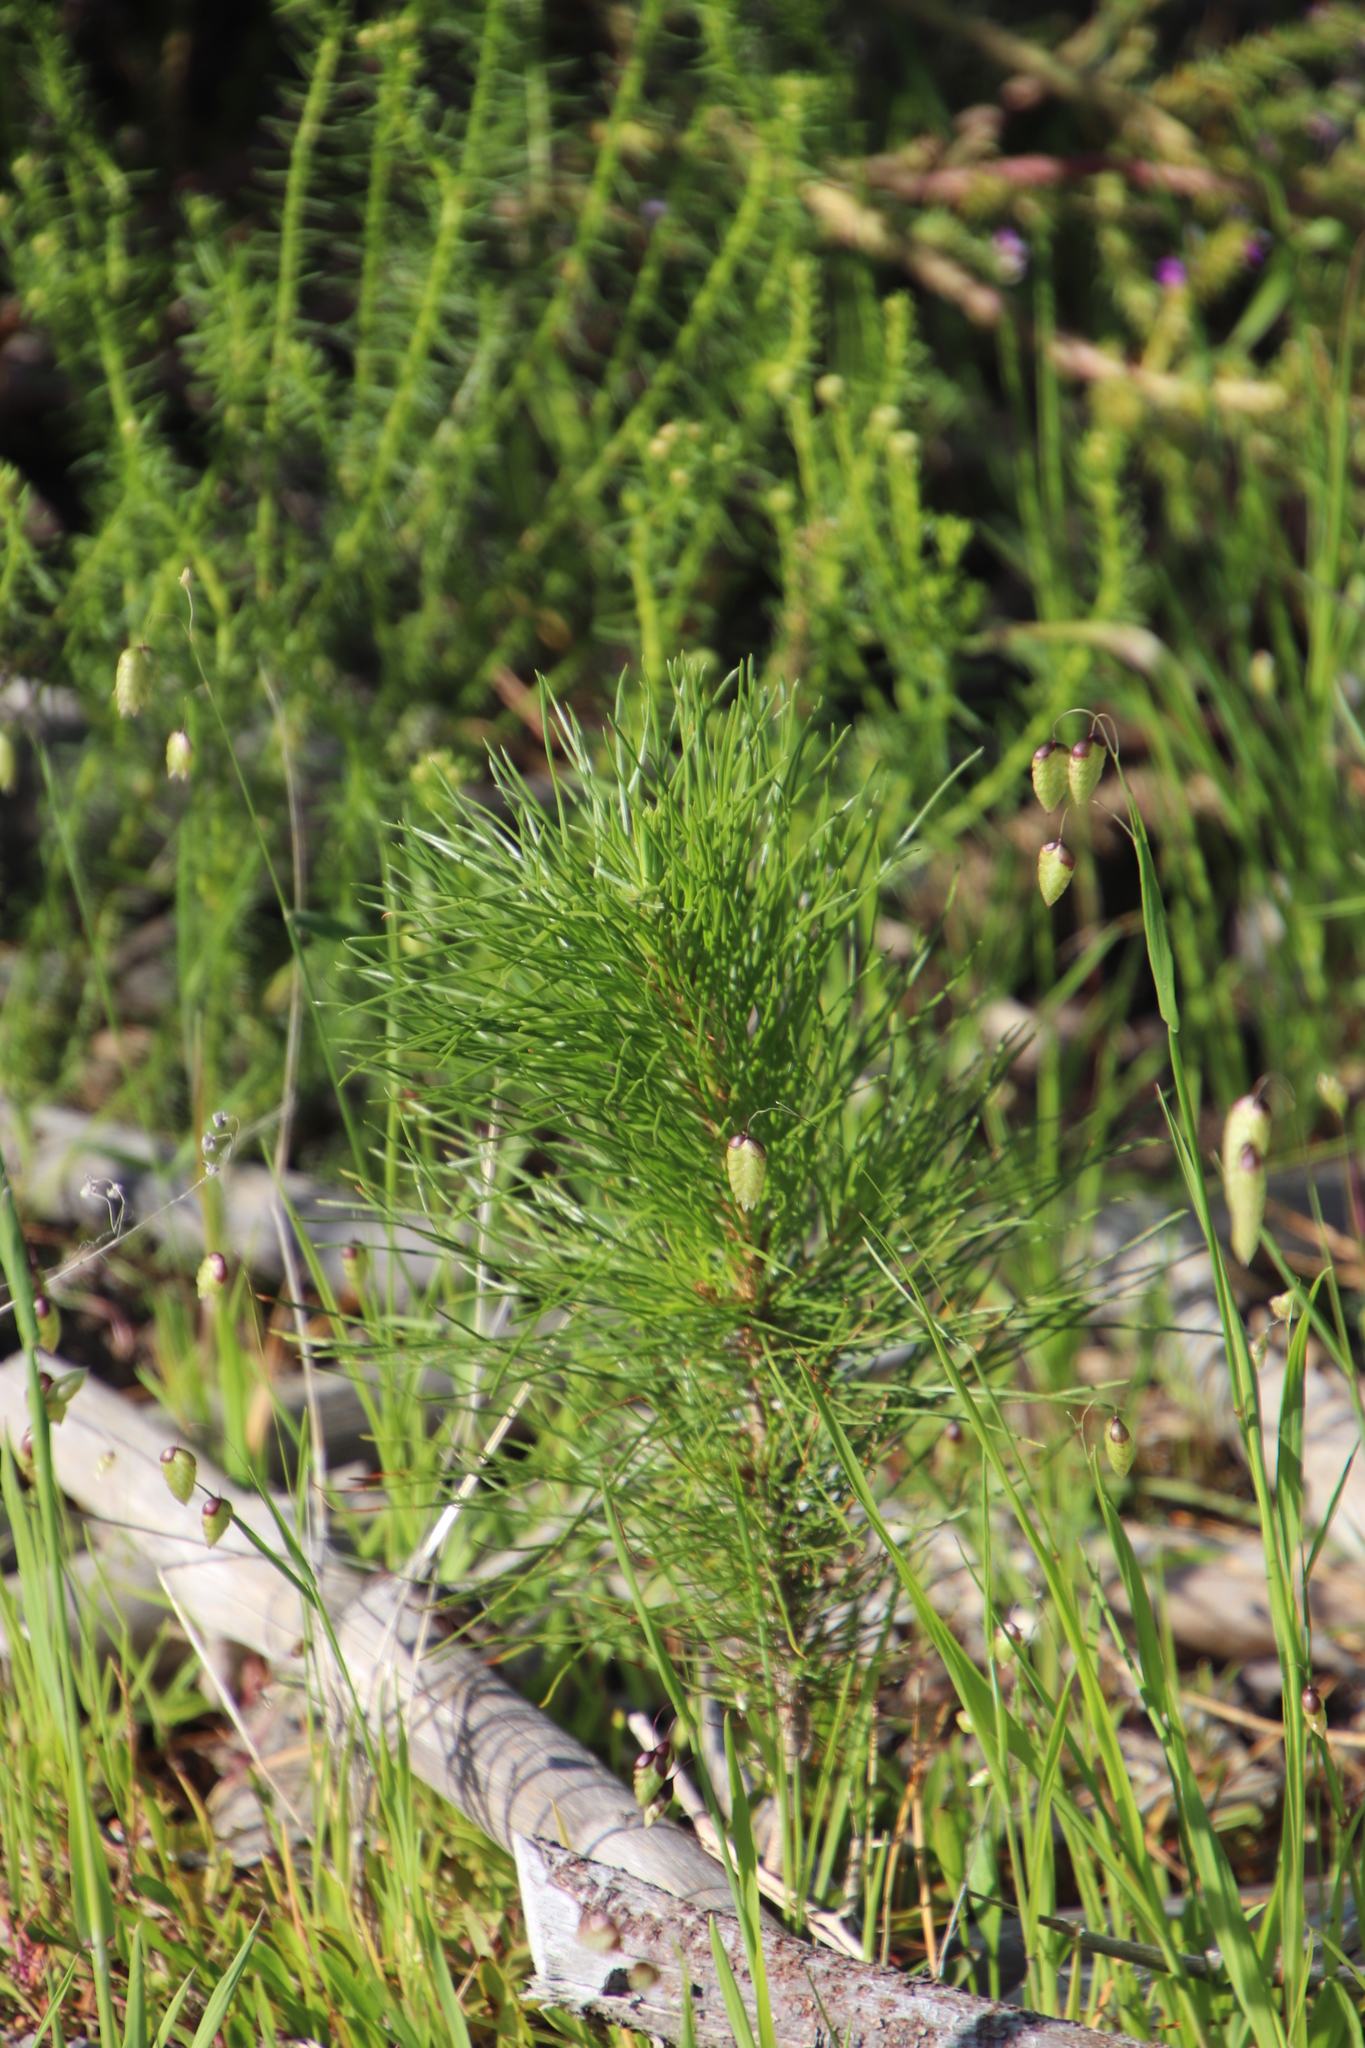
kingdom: Plantae
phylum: Tracheophyta
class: Pinopsida
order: Pinales
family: Pinaceae
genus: Pinus
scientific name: Pinus radiata
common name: Monterey pine
